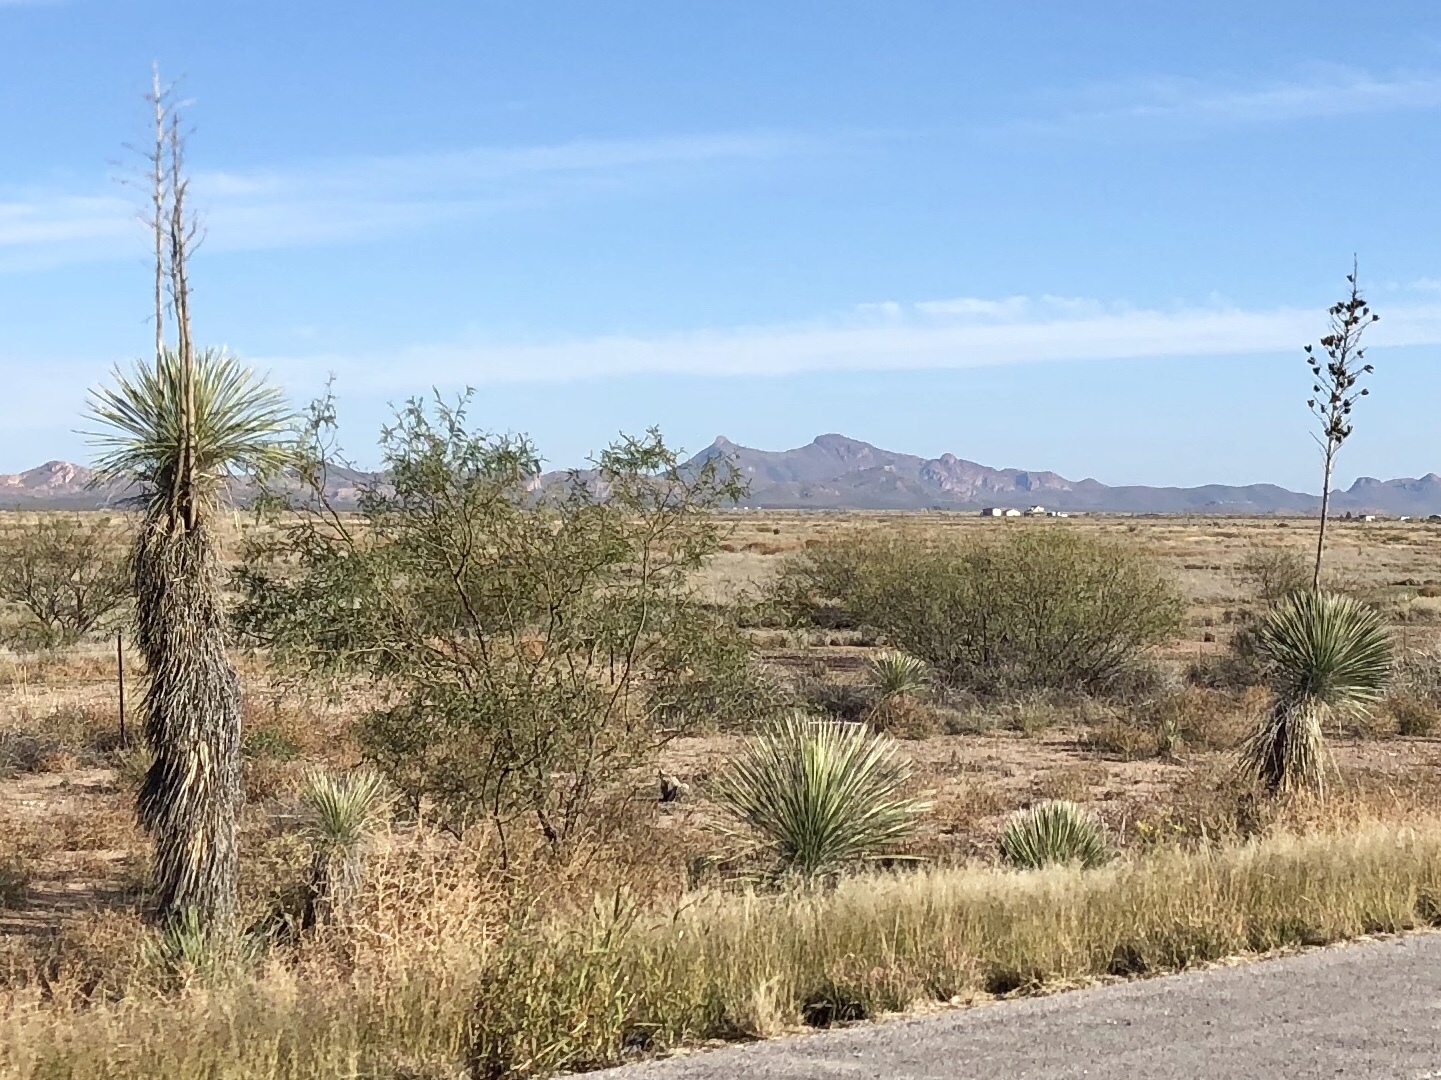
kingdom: Plantae
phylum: Tracheophyta
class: Liliopsida
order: Asparagales
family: Asparagaceae
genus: Yucca
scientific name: Yucca elata
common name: Palmella
